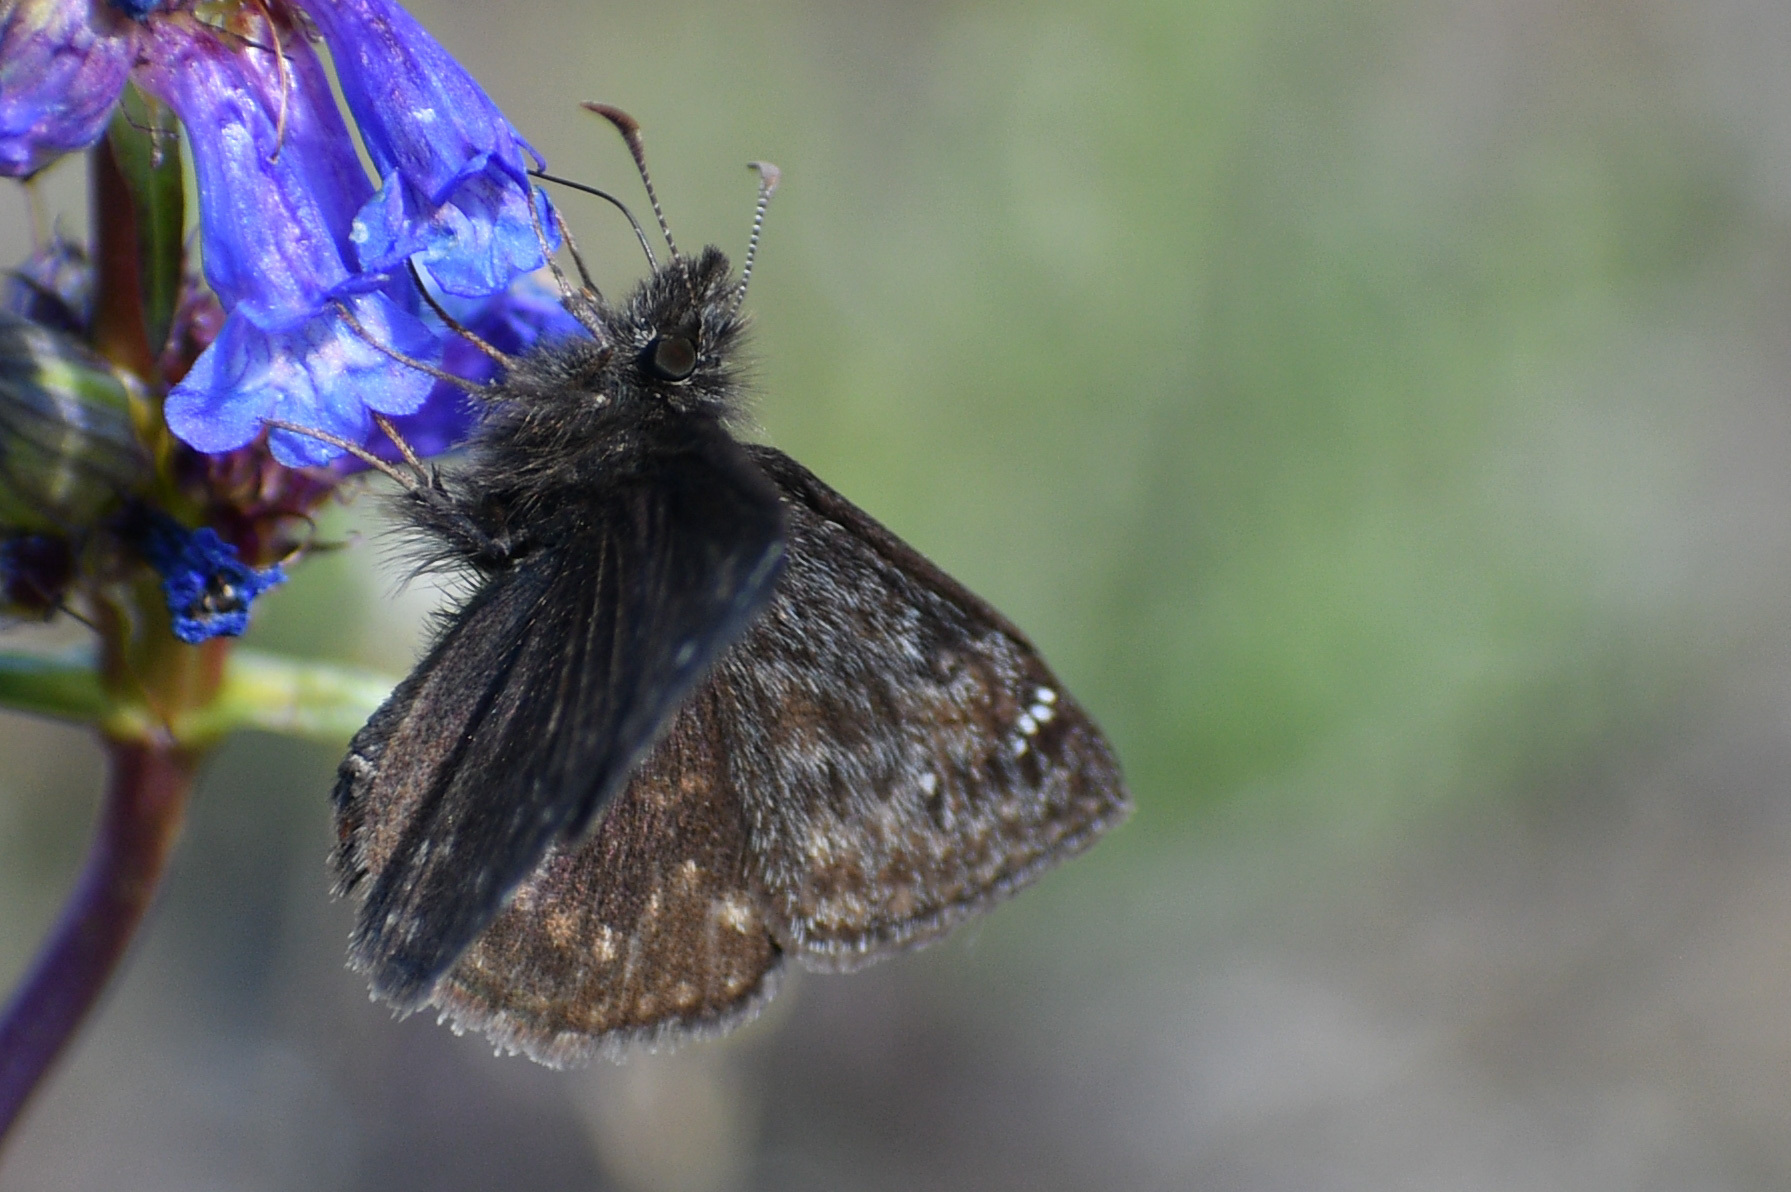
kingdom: Animalia
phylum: Arthropoda
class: Insecta
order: Lepidoptera
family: Hesperiidae
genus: Erynnis
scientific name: Erynnis persius
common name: Persius duskywing
